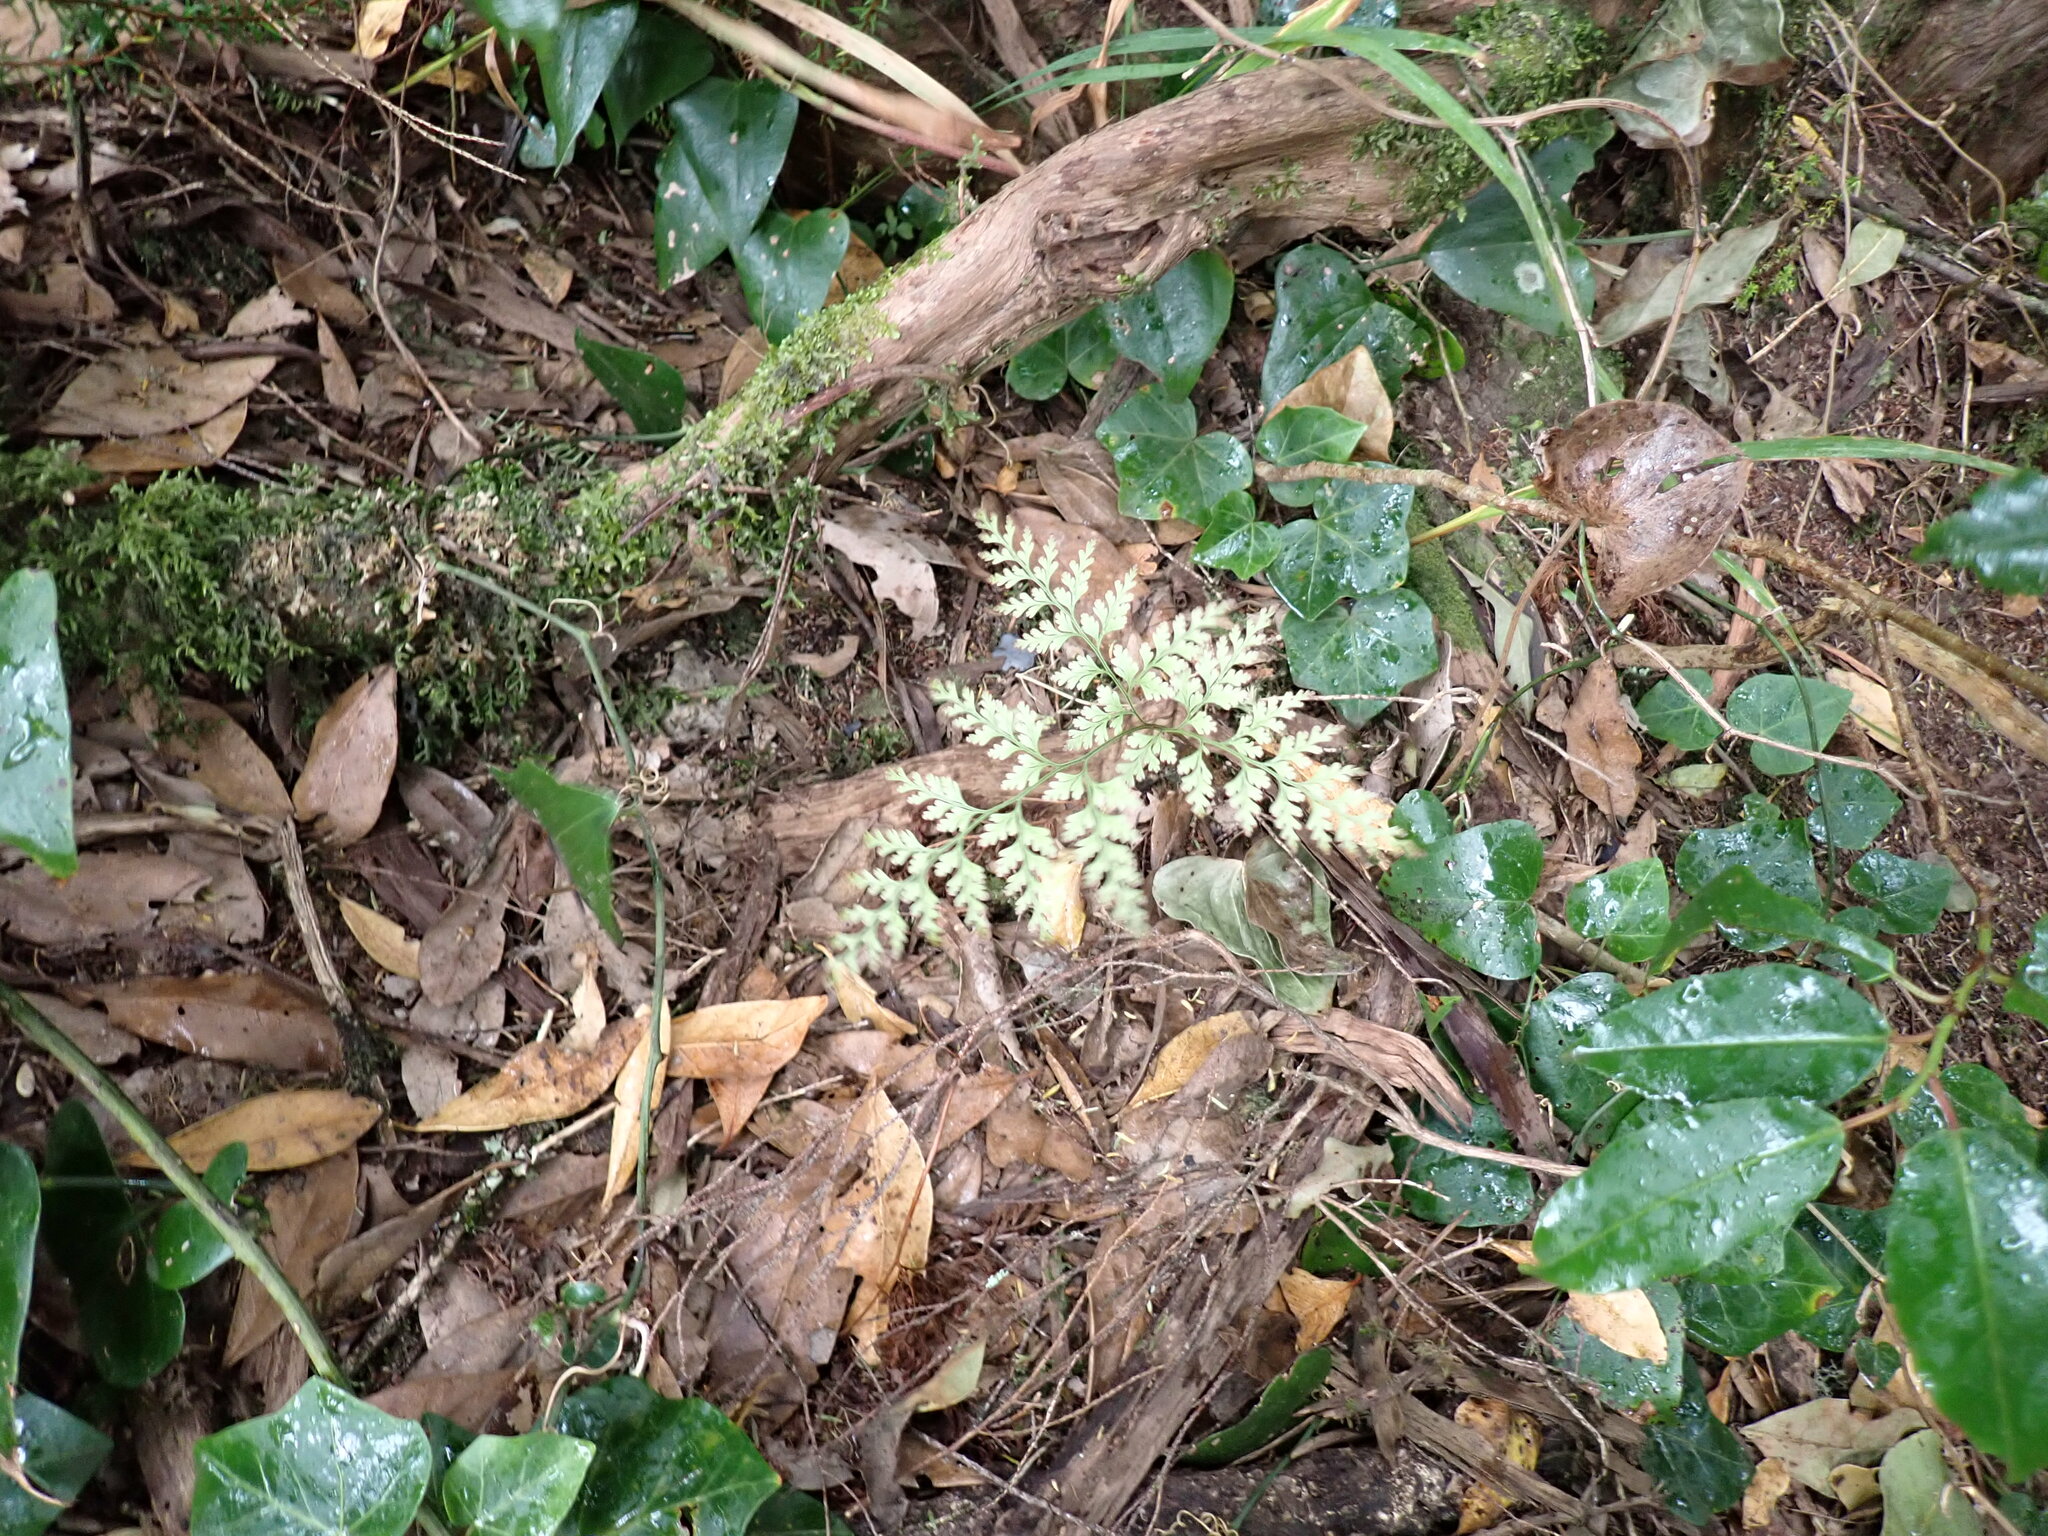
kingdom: Plantae
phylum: Tracheophyta
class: Polypodiopsida
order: Polypodiales
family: Davalliaceae
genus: Davallia
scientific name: Davallia canariensis
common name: Hare's-foot fern
